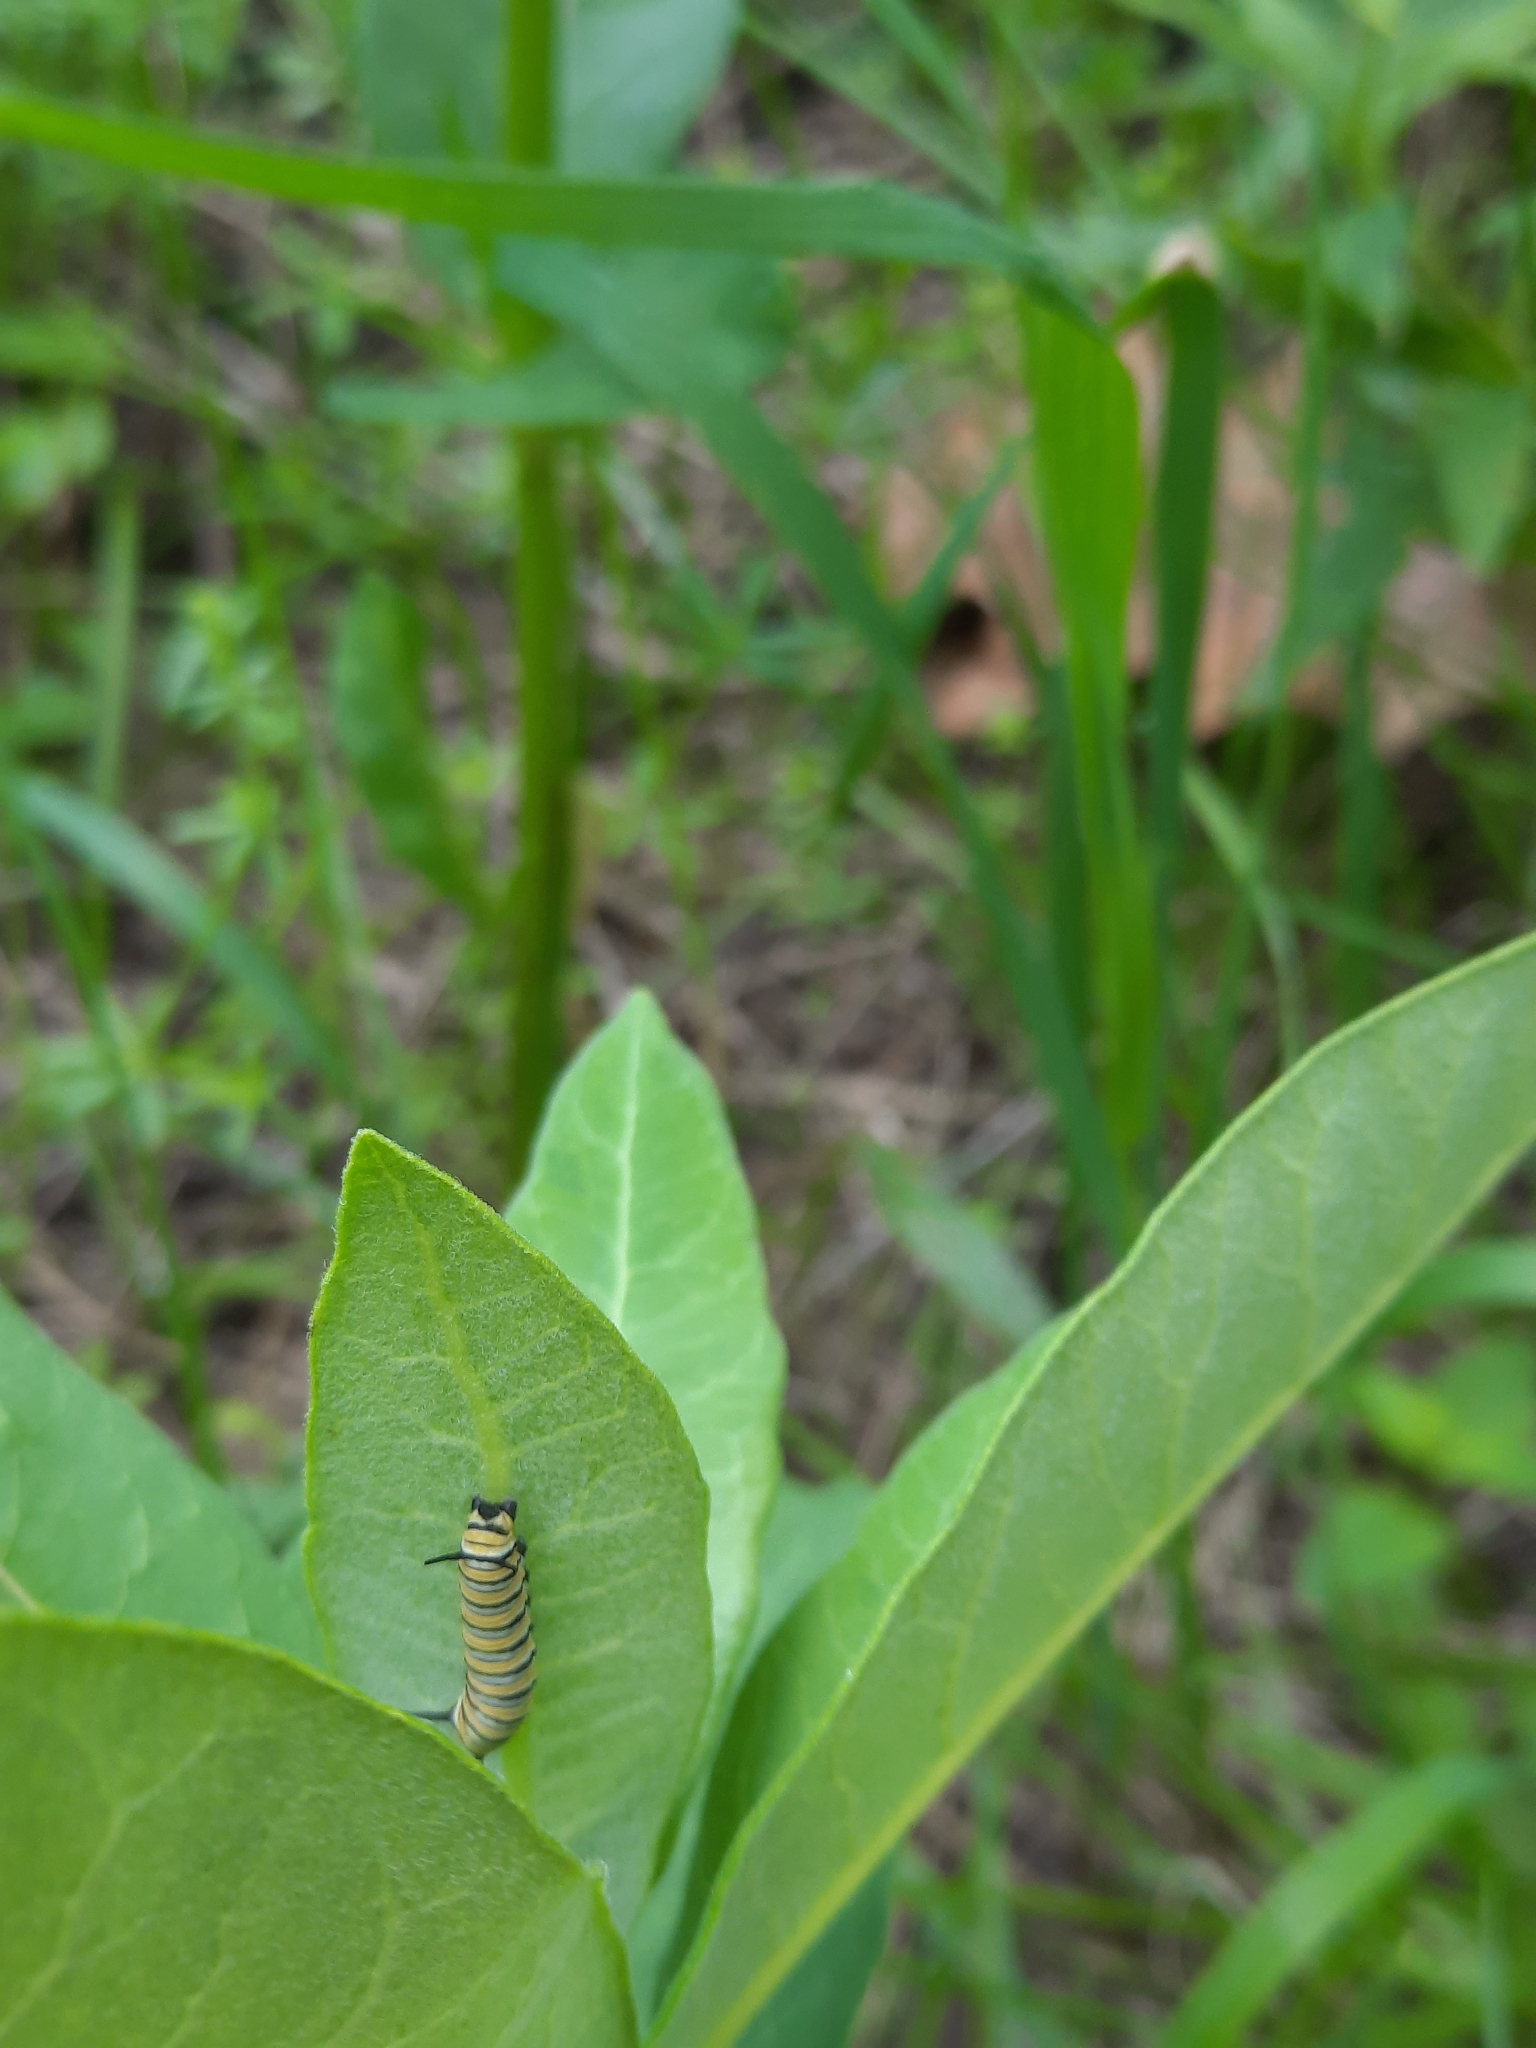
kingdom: Animalia
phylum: Arthropoda
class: Insecta
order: Lepidoptera
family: Nymphalidae
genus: Danaus
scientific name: Danaus plexippus
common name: Monarch
